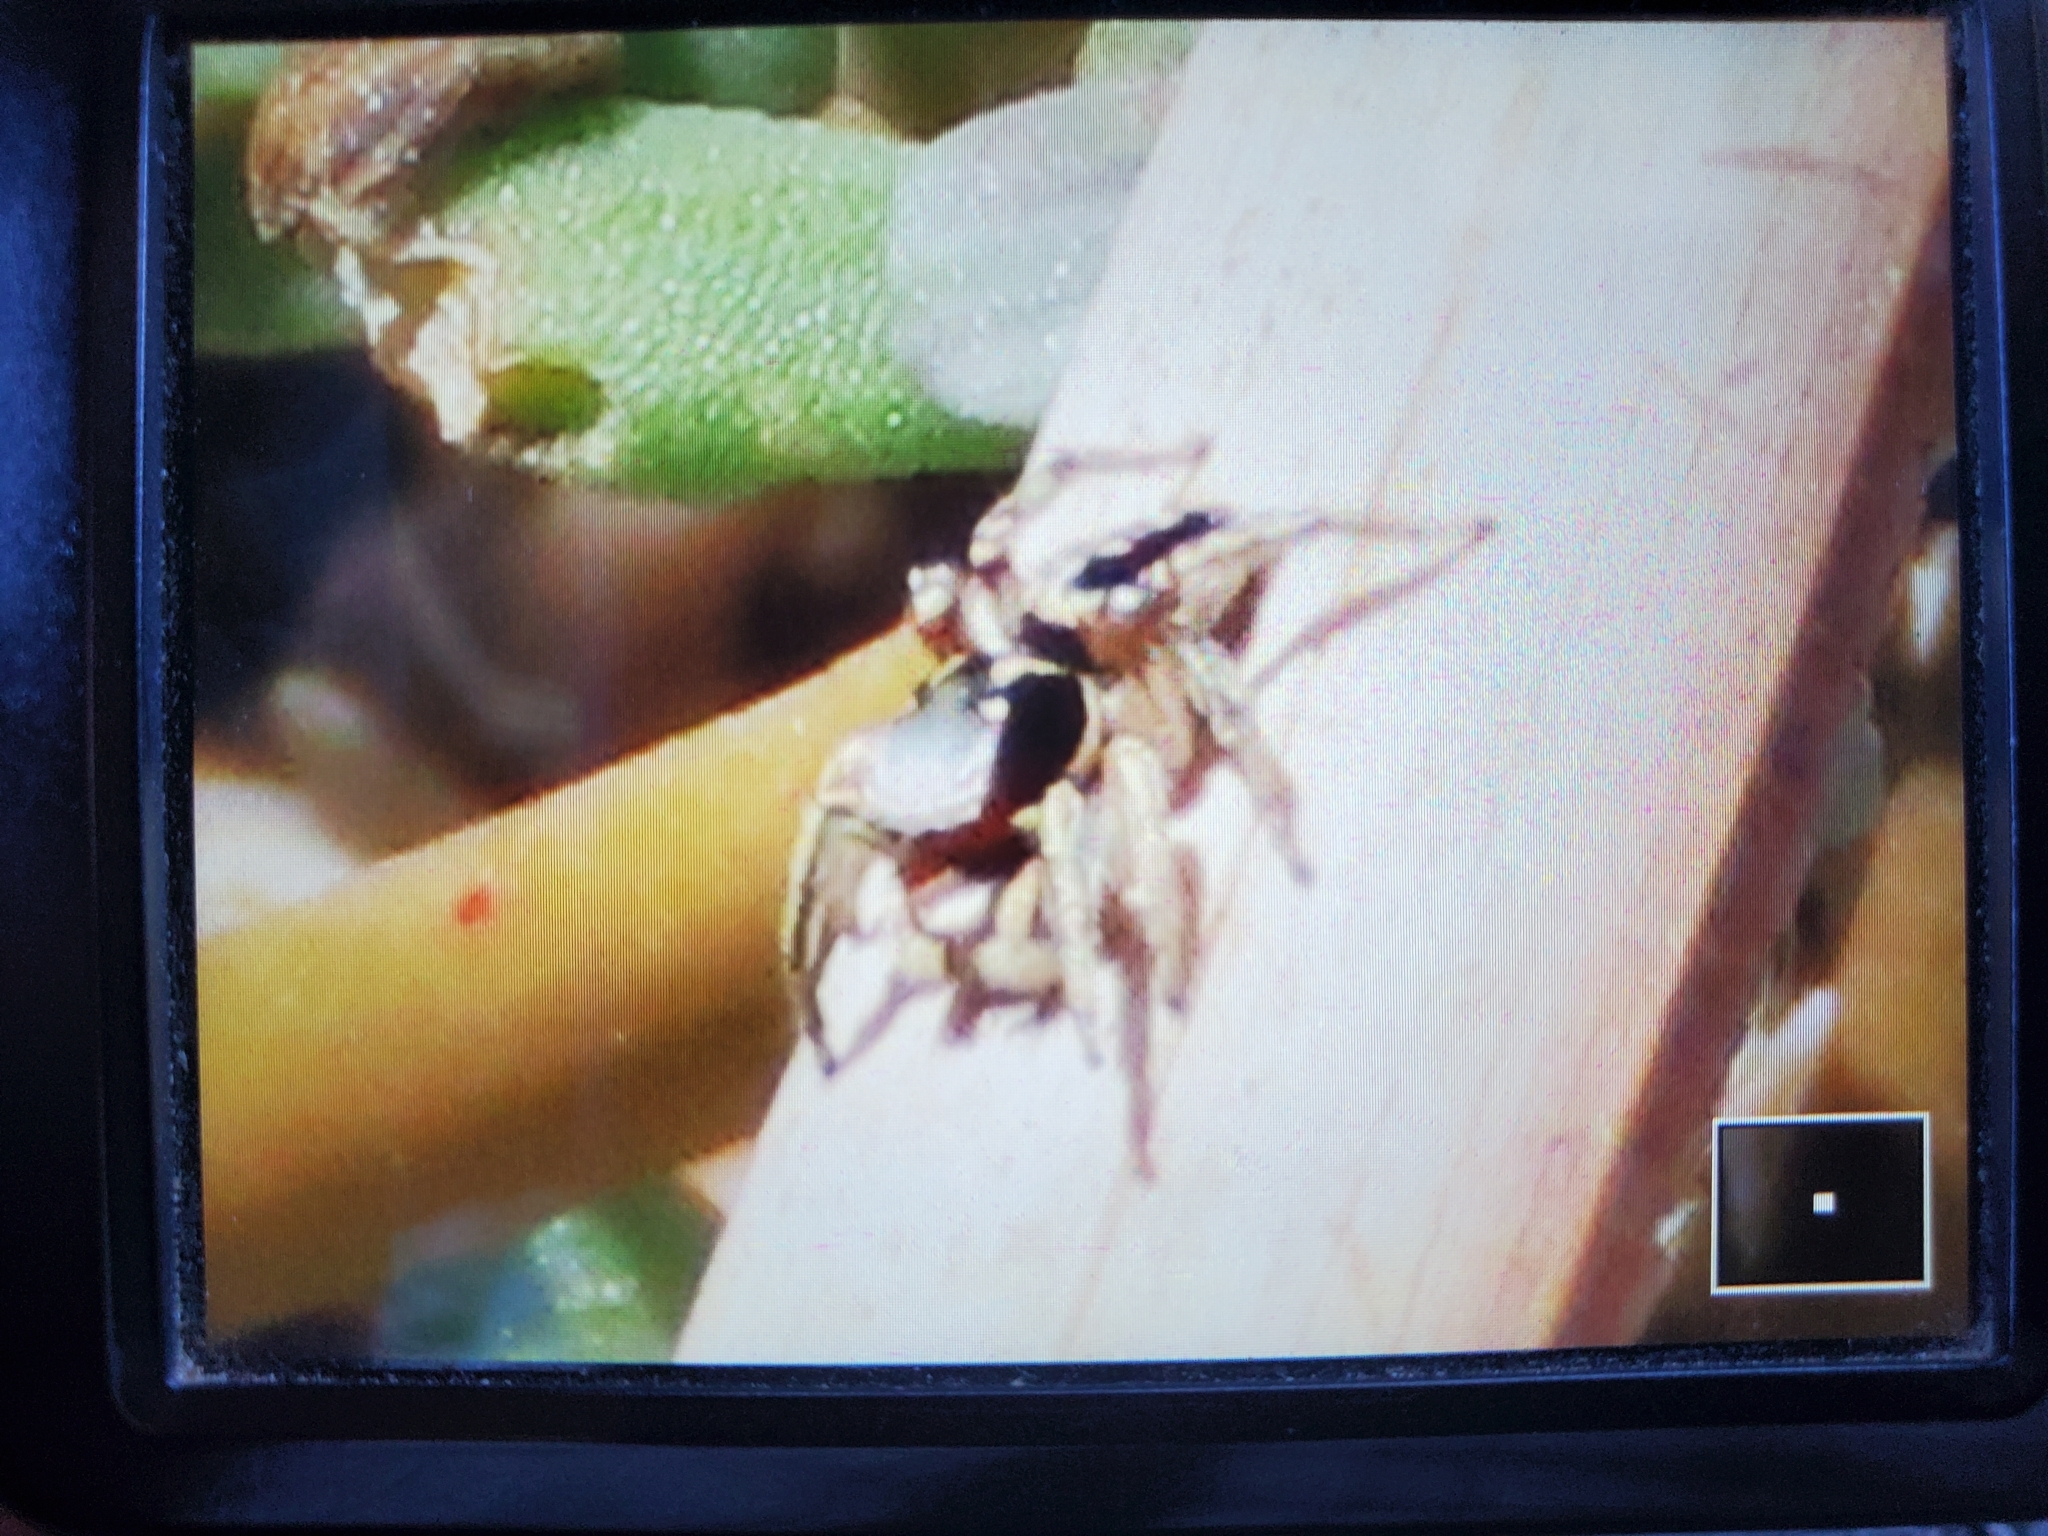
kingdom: Animalia
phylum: Arthropoda
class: Arachnida
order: Araneae
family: Salticidae
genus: Habronattus
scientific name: Habronattus pyrrithrix
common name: Jumping spider
